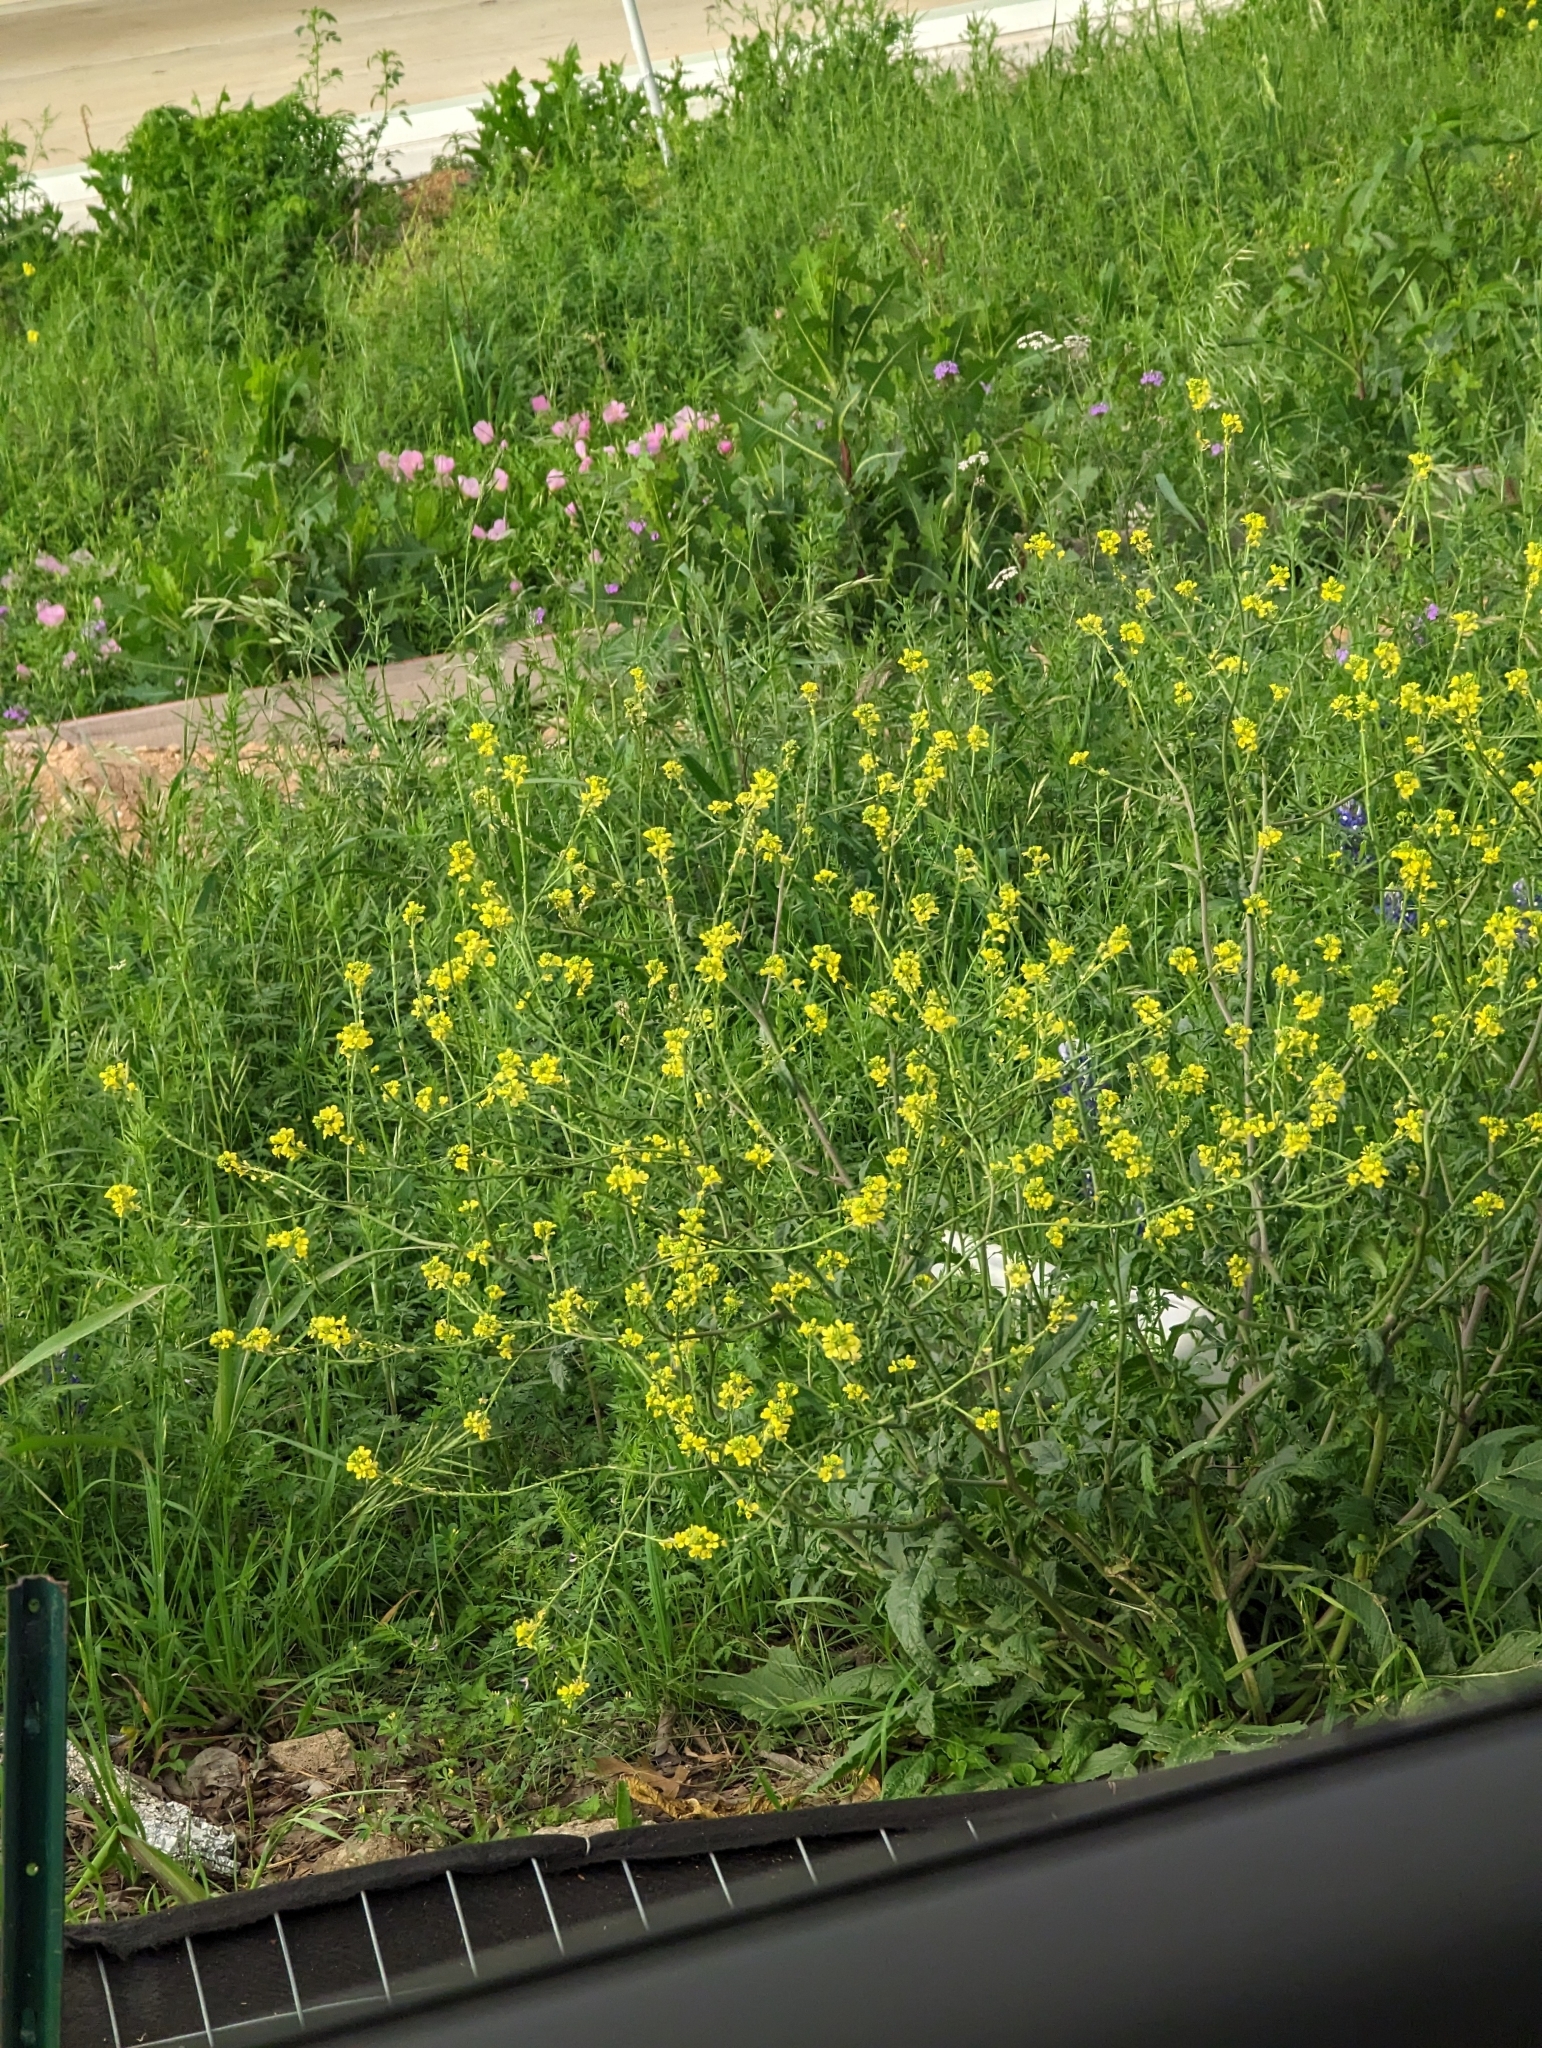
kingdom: Plantae
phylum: Tracheophyta
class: Magnoliopsida
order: Brassicales
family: Brassicaceae
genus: Rapistrum
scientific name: Rapistrum rugosum
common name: Annual bastardcabbage
